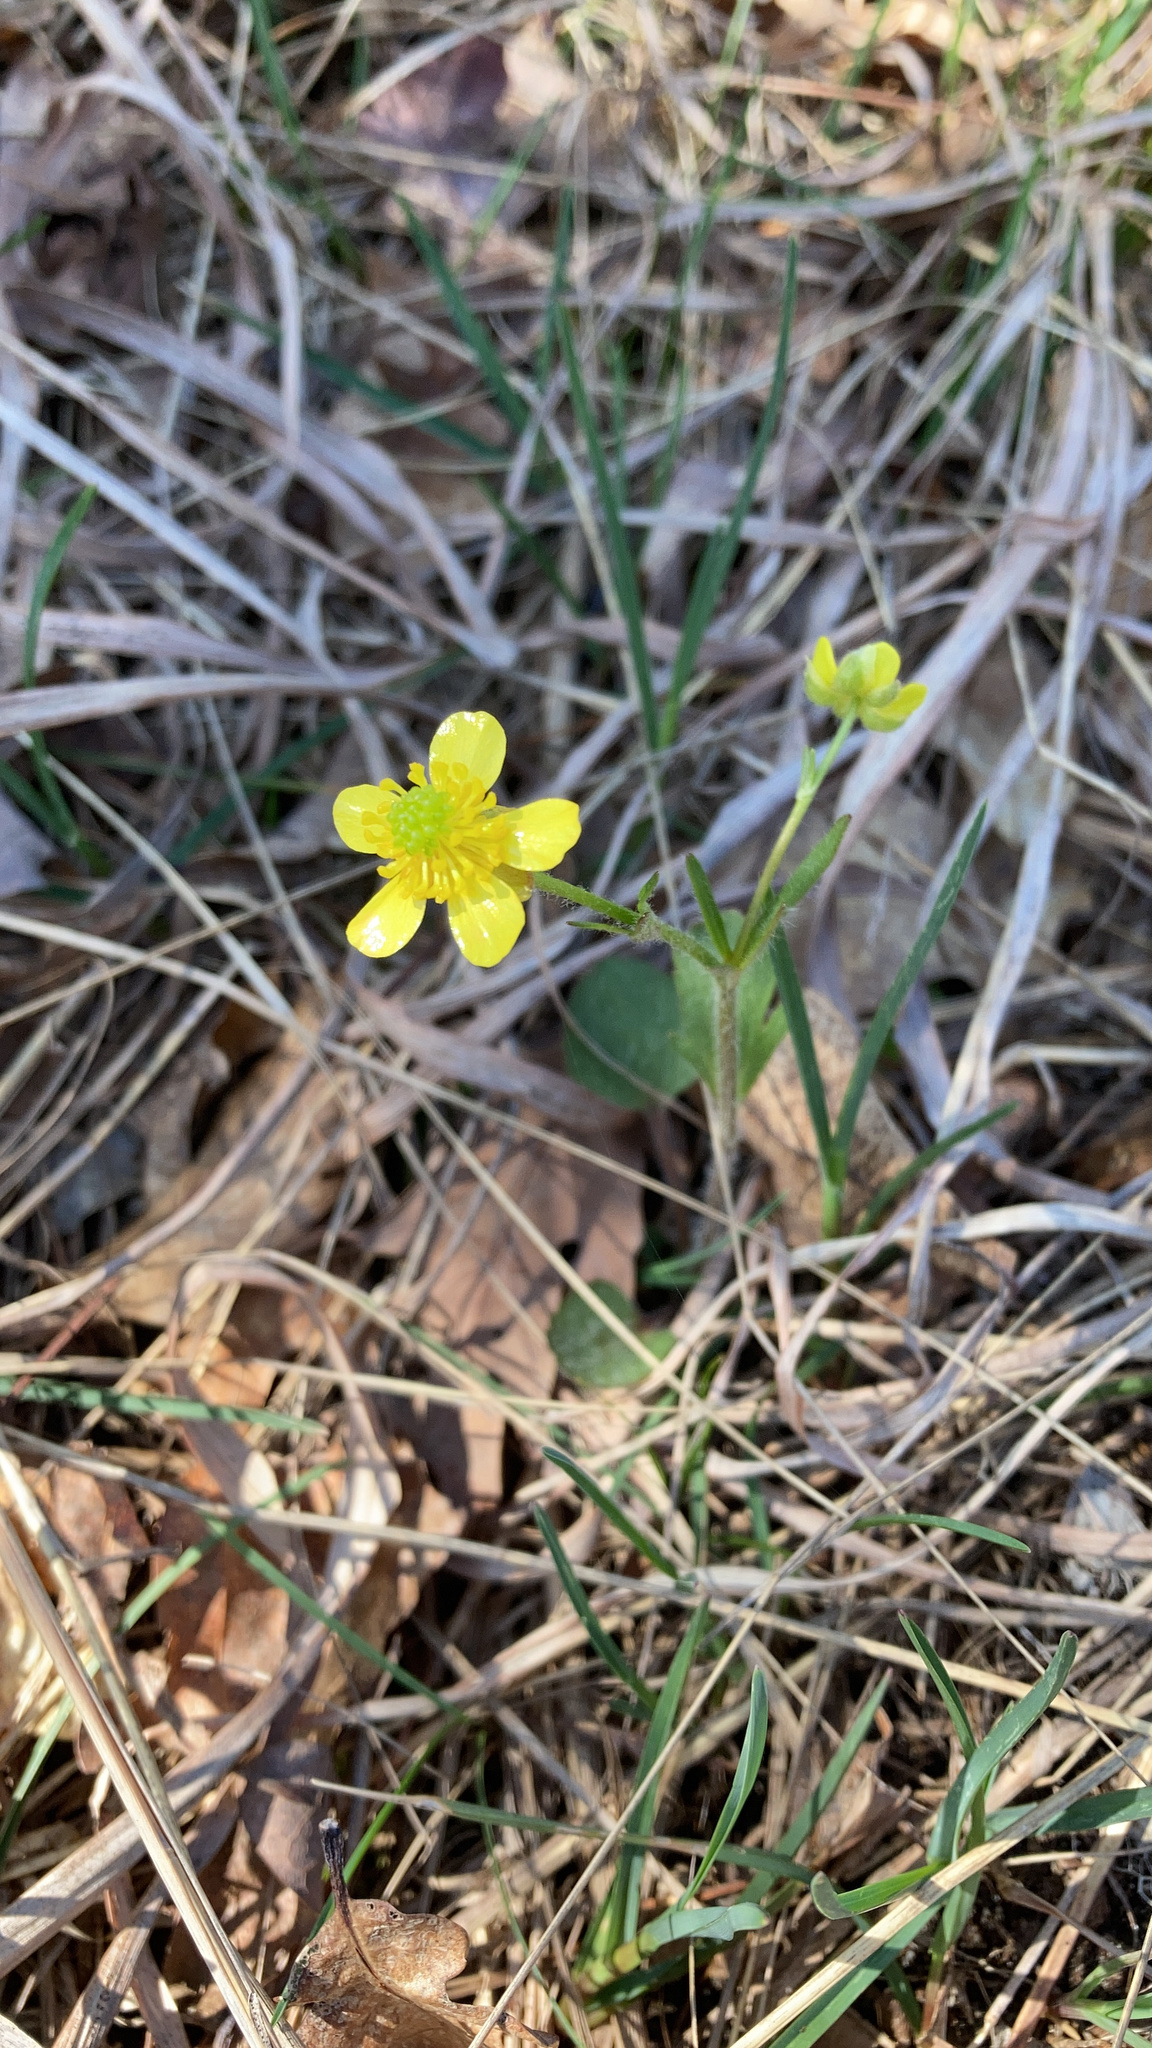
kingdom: Plantae
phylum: Tracheophyta
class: Magnoliopsida
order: Ranunculales
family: Ranunculaceae
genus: Ranunculus
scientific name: Ranunculus rhomboideus
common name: Prairie buttercup
